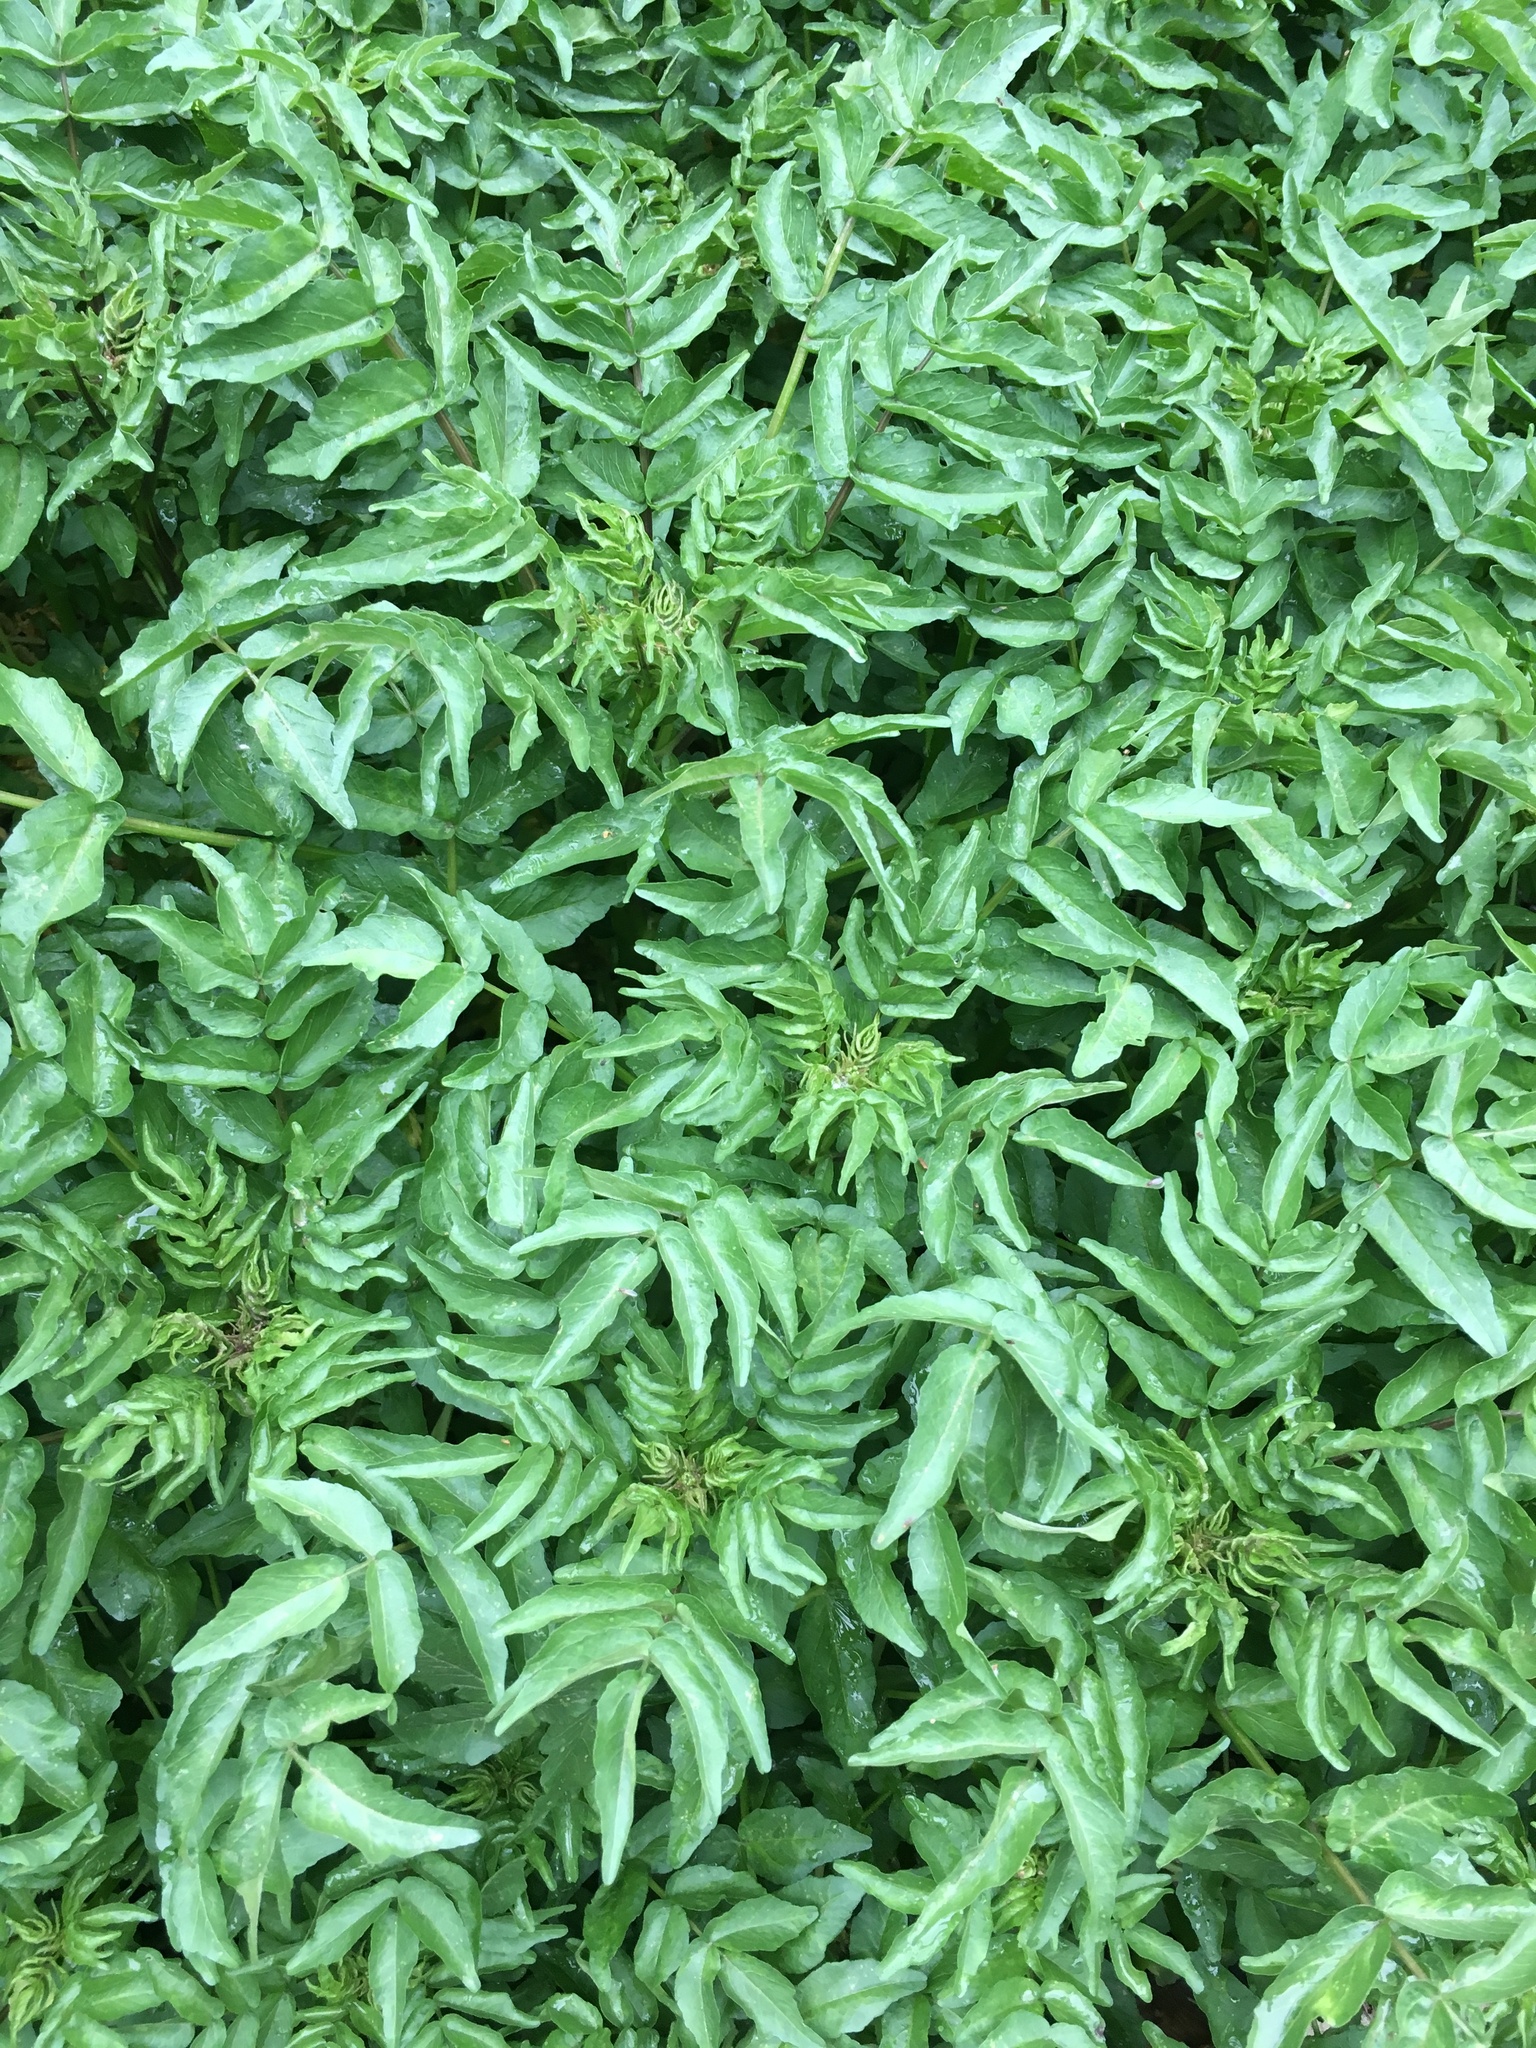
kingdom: Plantae
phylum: Tracheophyta
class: Magnoliopsida
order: Brassicales
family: Brassicaceae
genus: Nasturtium
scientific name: Nasturtium officinale
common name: Watercress
